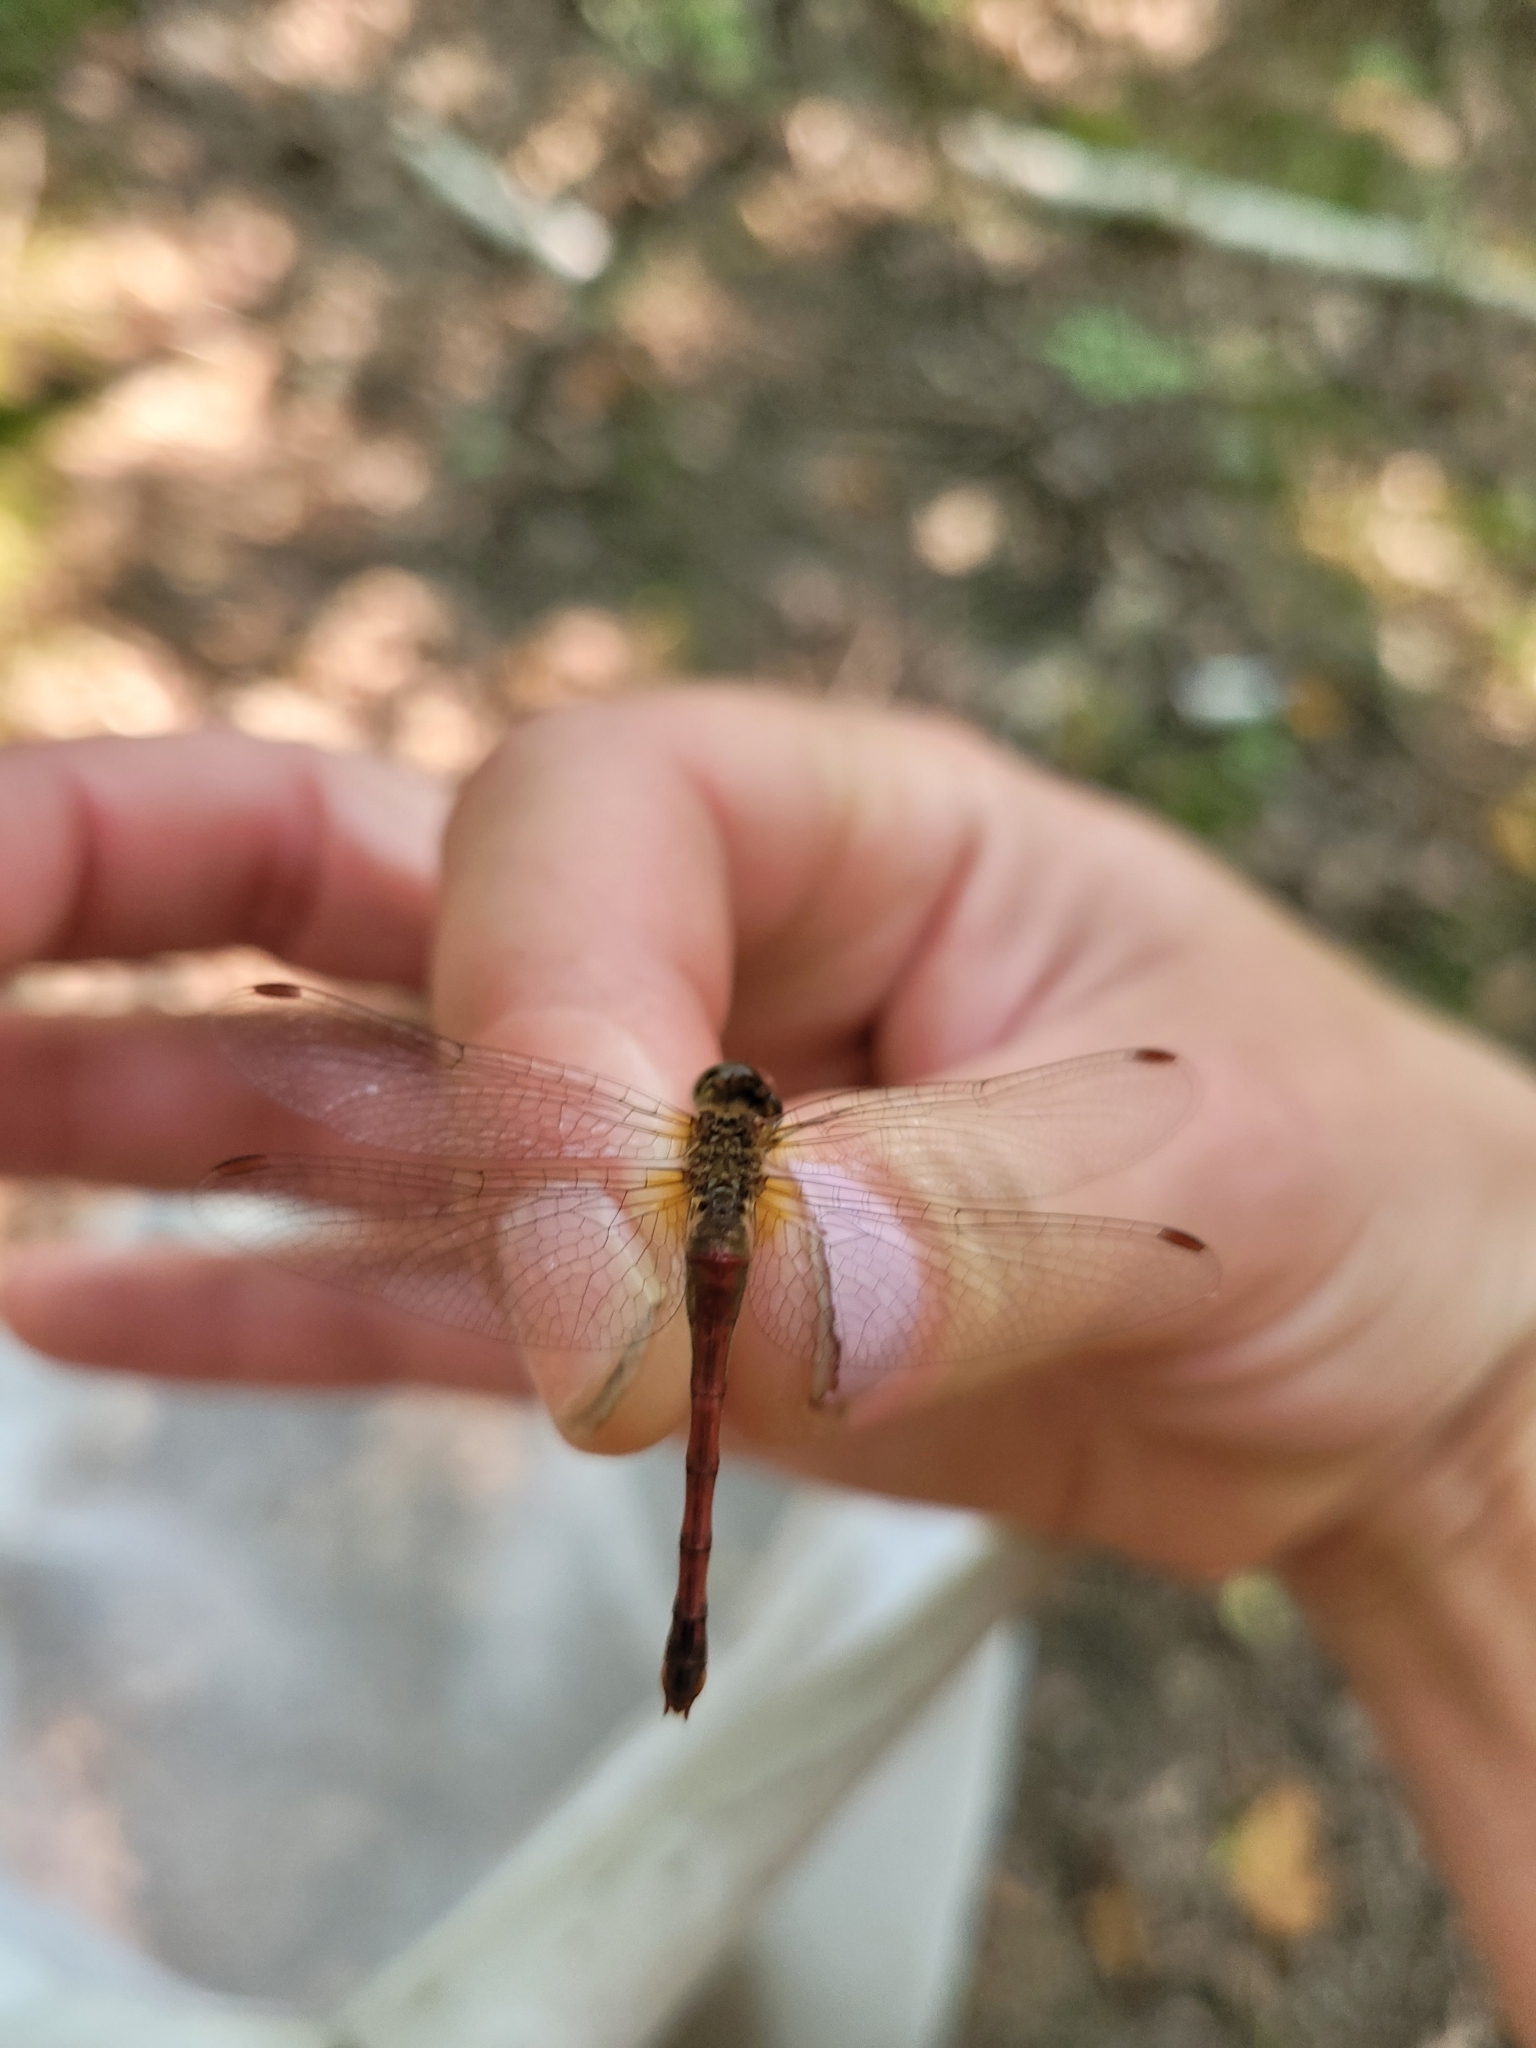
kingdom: Animalia
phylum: Arthropoda
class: Insecta
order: Odonata
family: Libellulidae
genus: Sympetrum
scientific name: Sympetrum vicinum
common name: Autumn meadowhawk
